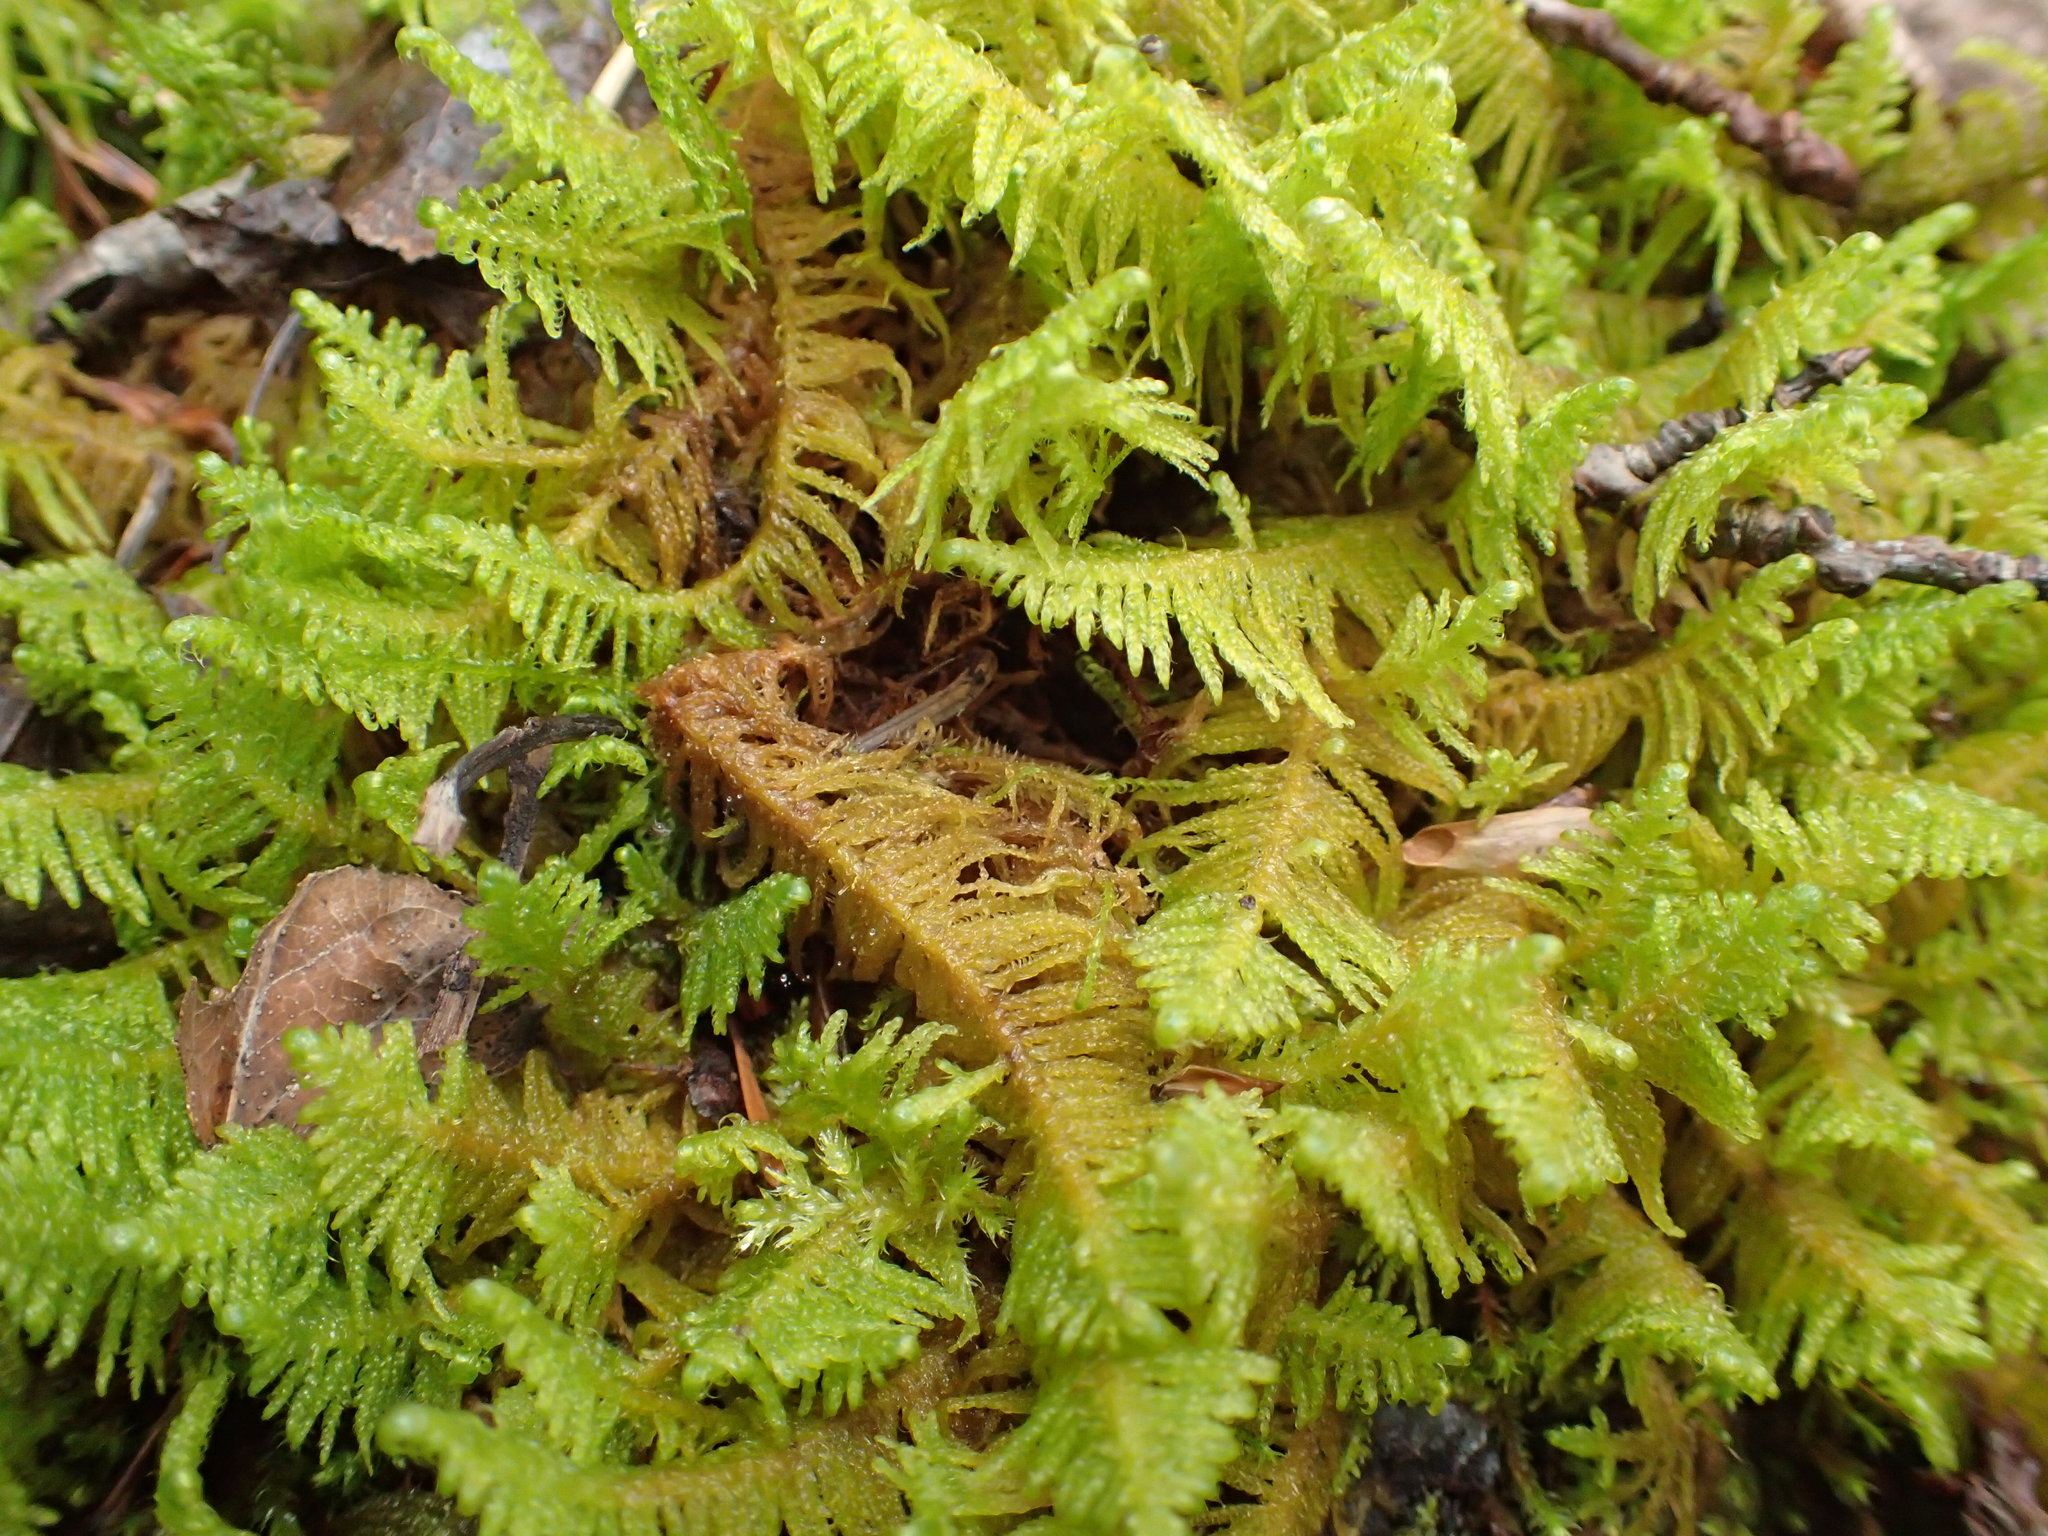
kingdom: Plantae
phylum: Bryophyta
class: Bryopsida
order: Hypnales
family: Pylaisiaceae
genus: Ptilium
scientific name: Ptilium crista-castrensis
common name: Knight's plume moss
